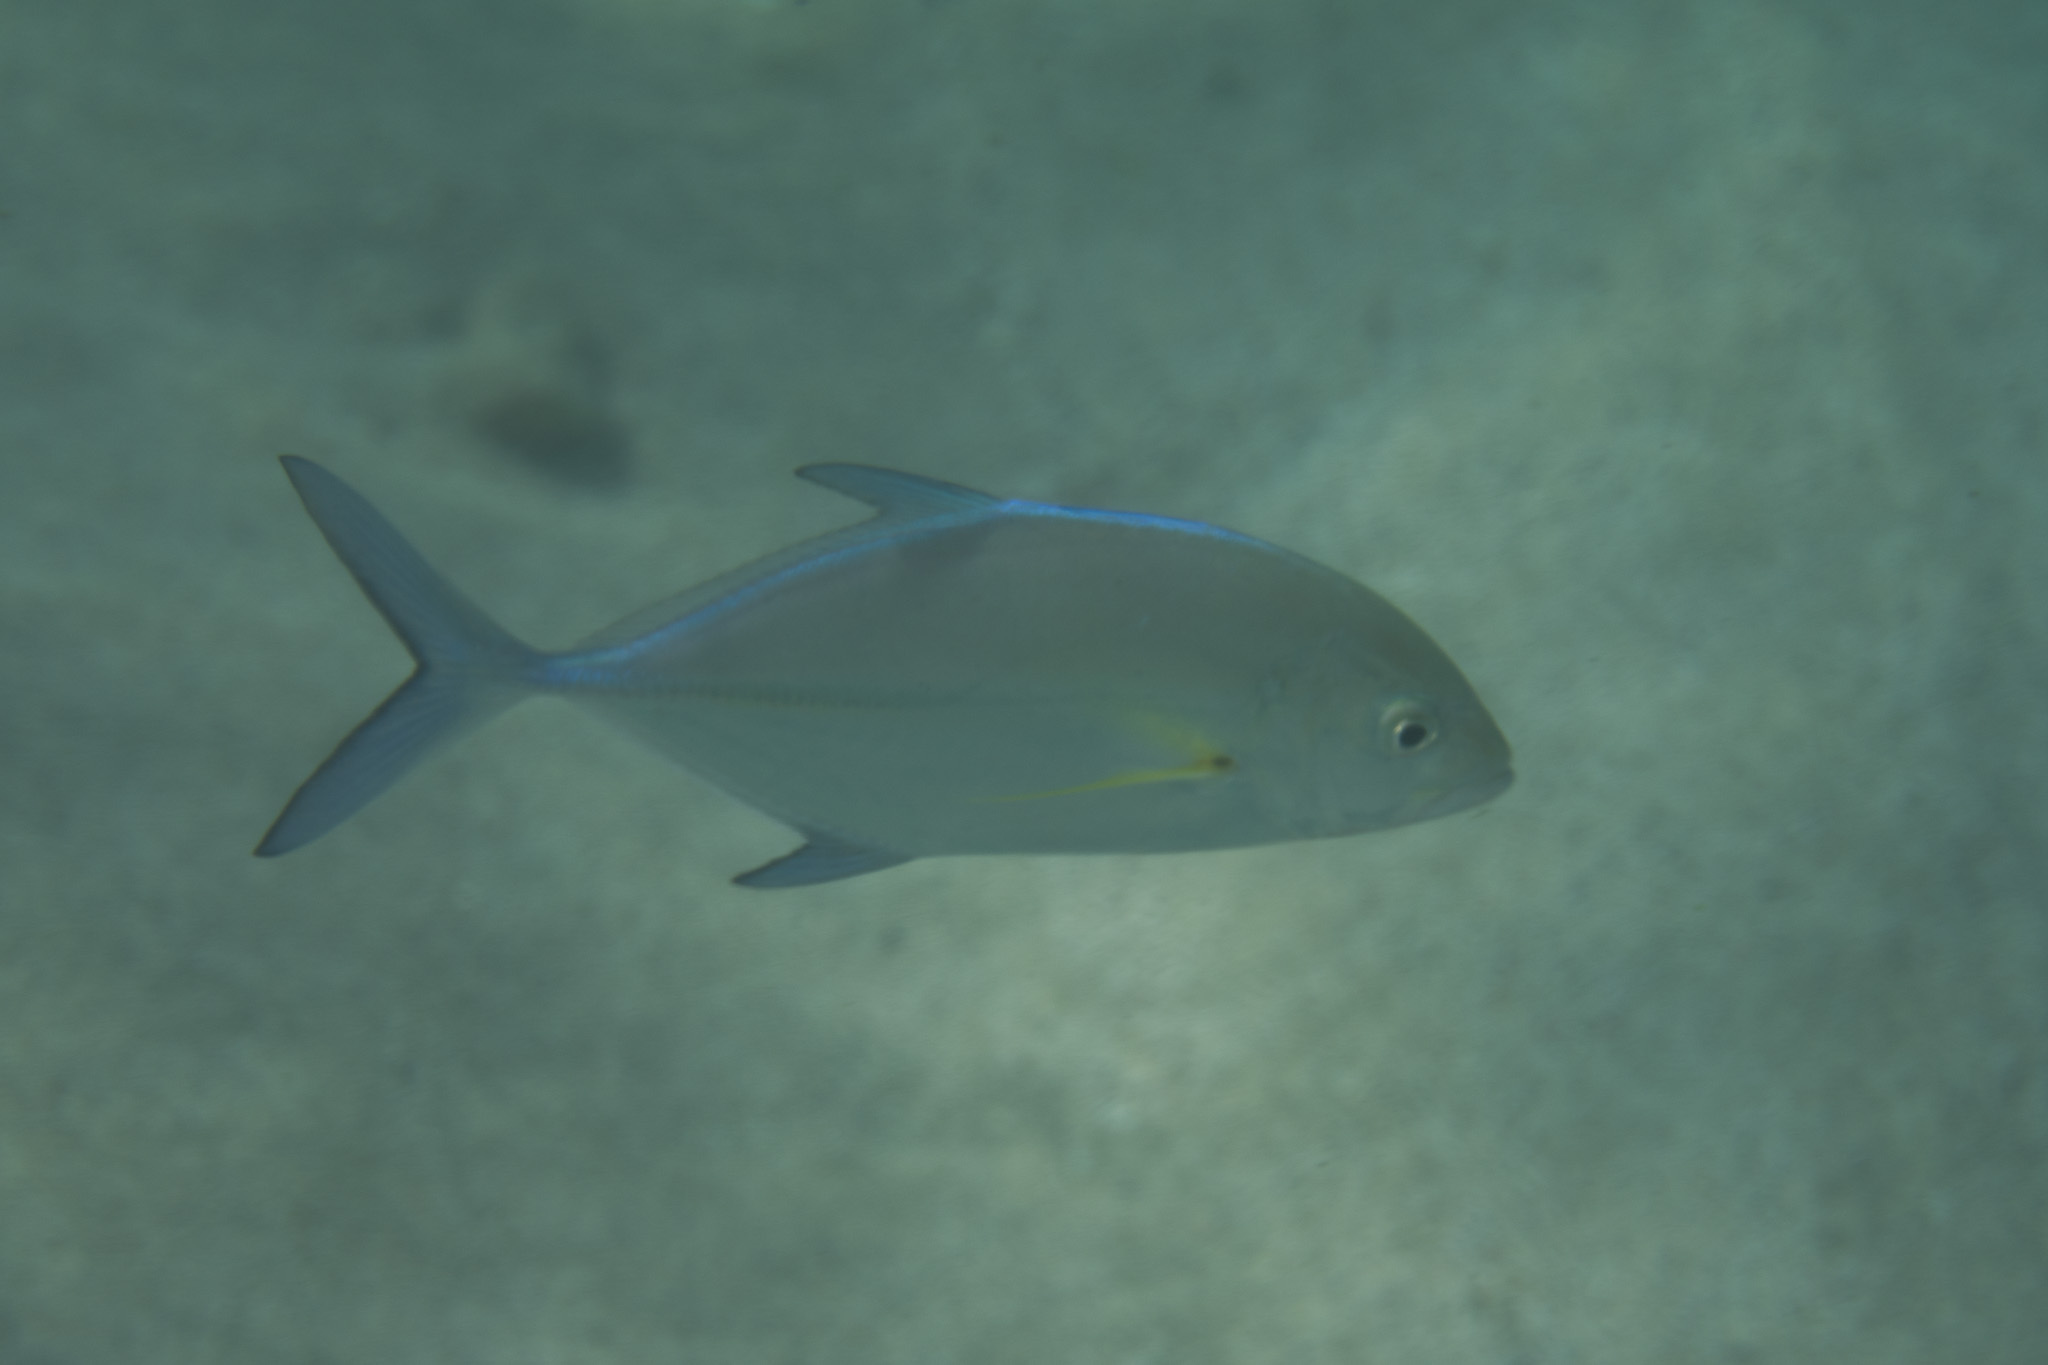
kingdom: Animalia
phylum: Chordata
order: Perciformes
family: Carangidae
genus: Caranx
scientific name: Caranx melampygus
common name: Bluefin trevally
